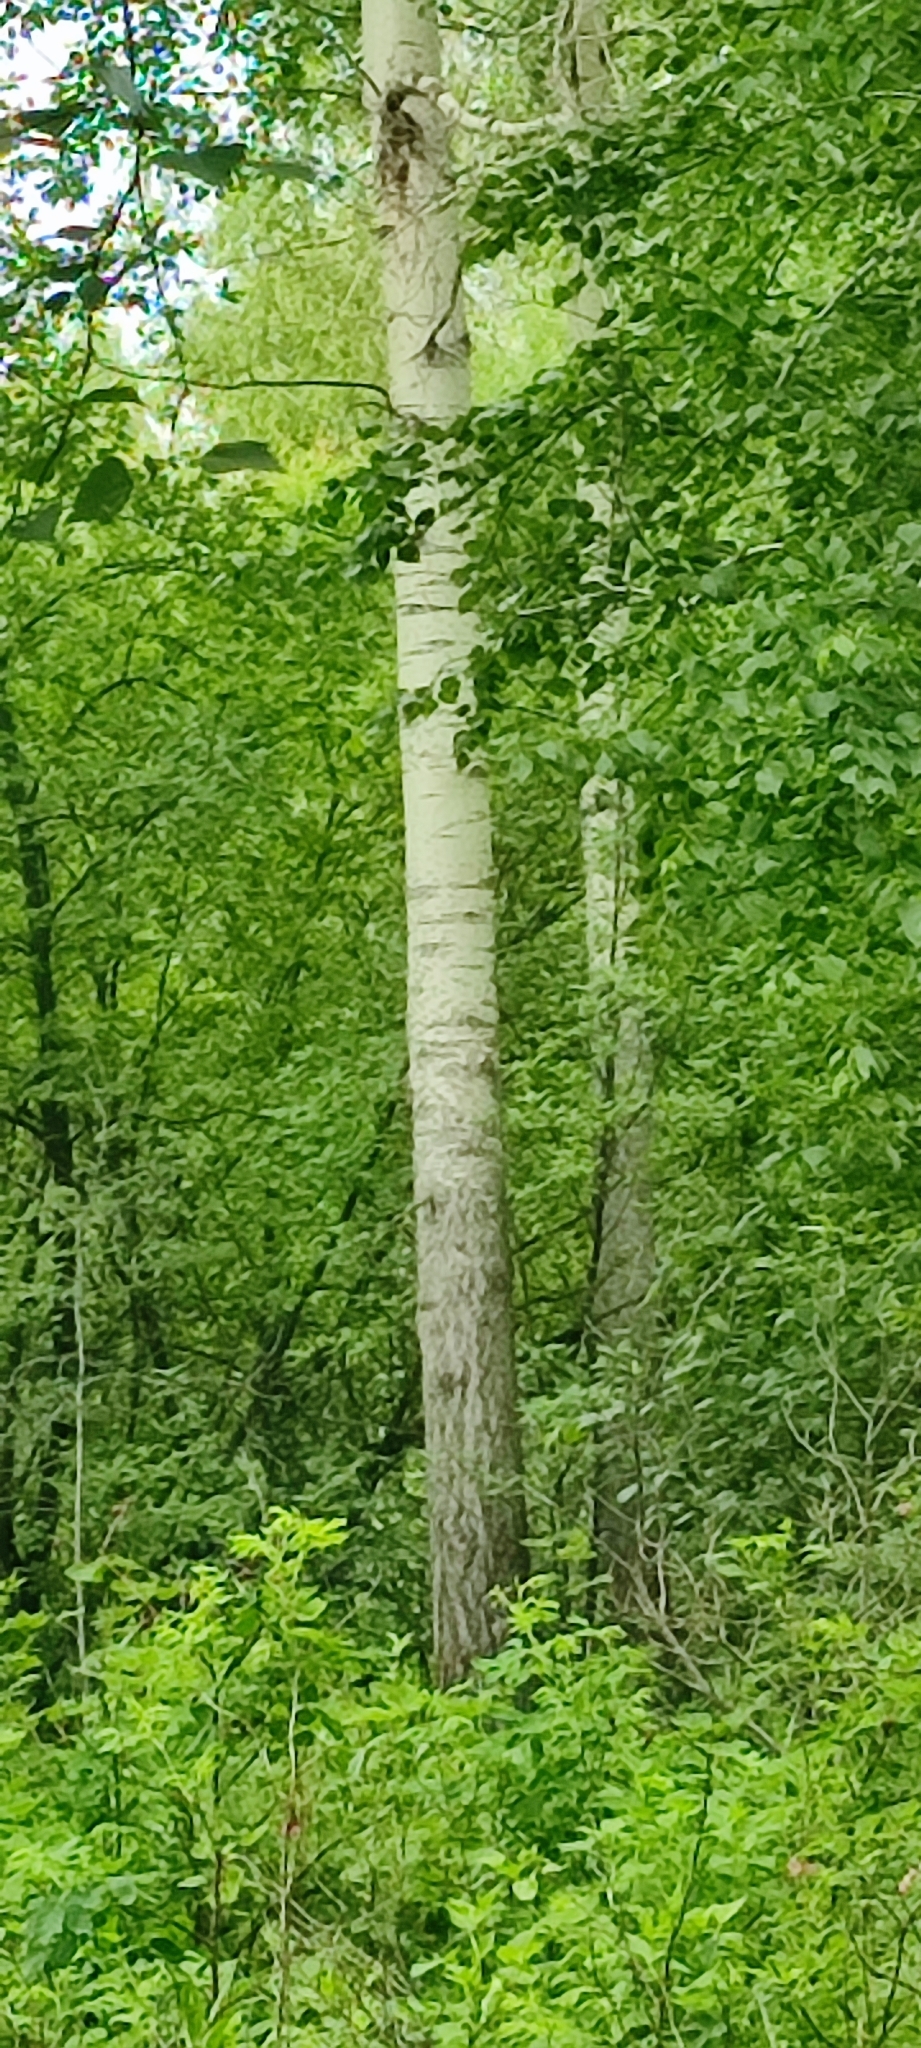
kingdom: Plantae
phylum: Tracheophyta
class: Magnoliopsida
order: Malpighiales
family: Salicaceae
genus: Populus
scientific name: Populus tremula
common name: European aspen
